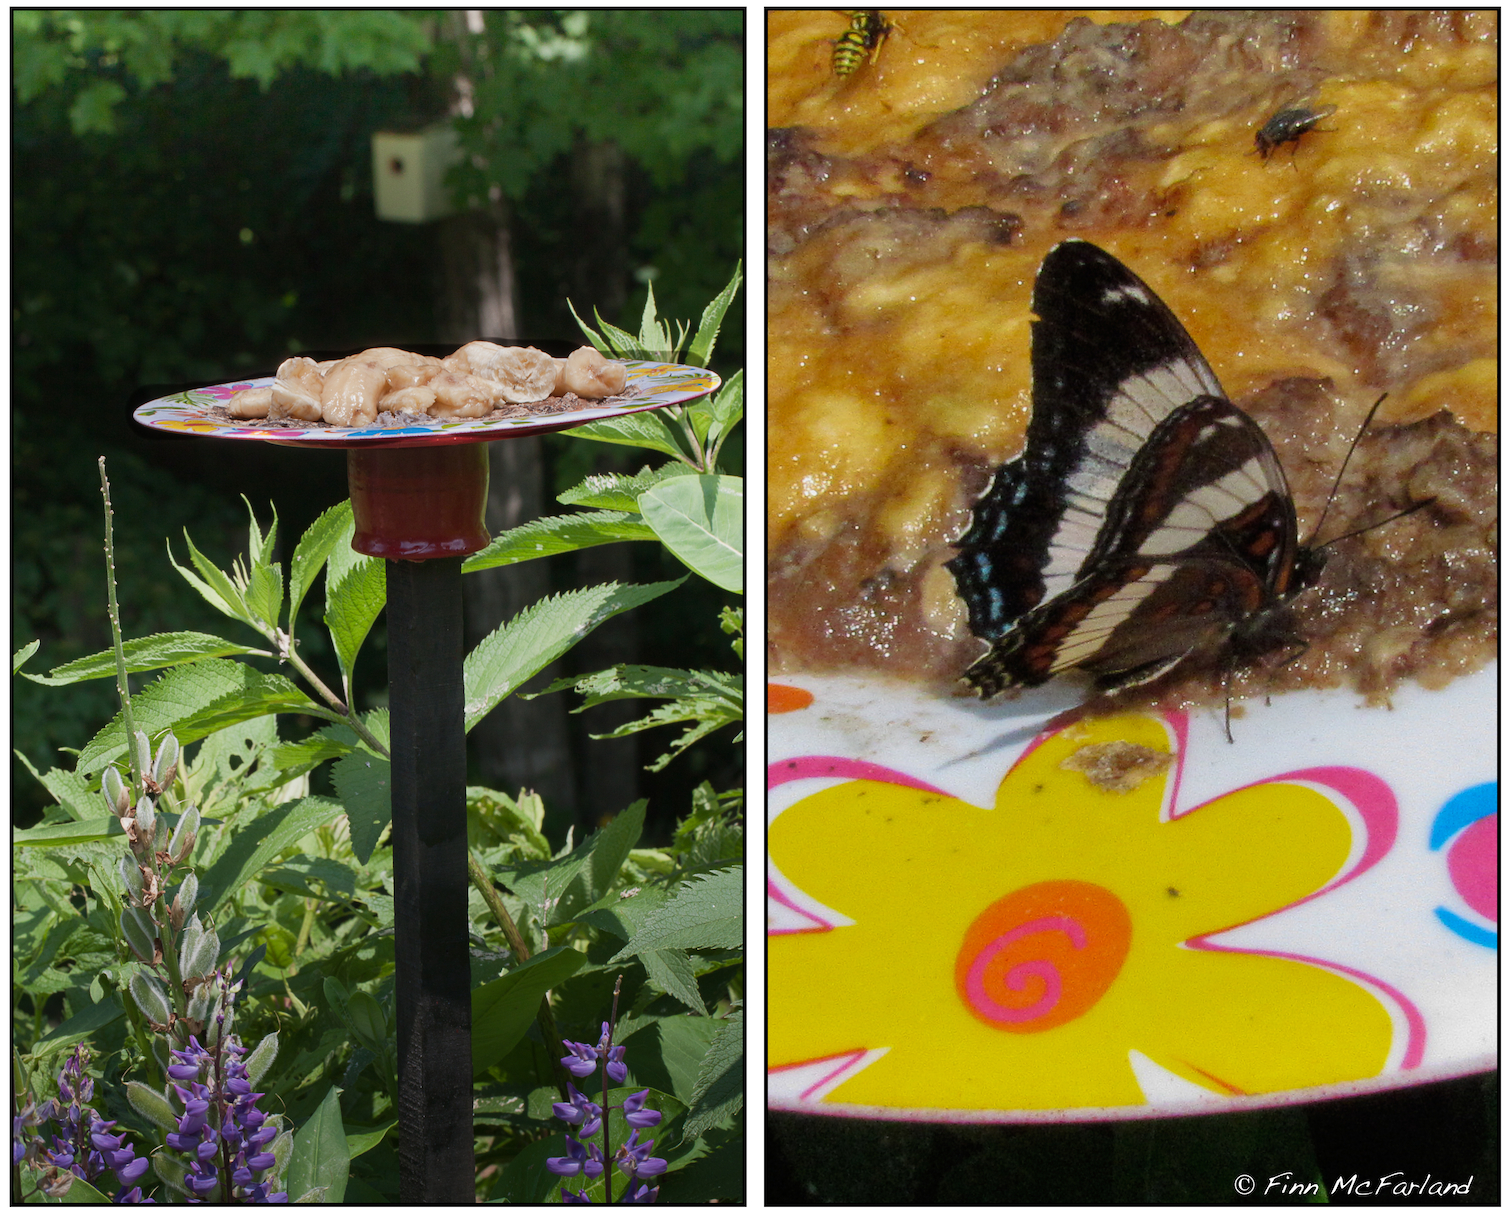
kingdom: Animalia
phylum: Arthropoda
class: Insecta
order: Lepidoptera
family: Nymphalidae
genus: Limenitis
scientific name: Limenitis arthemis
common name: Red-spotted admiral
